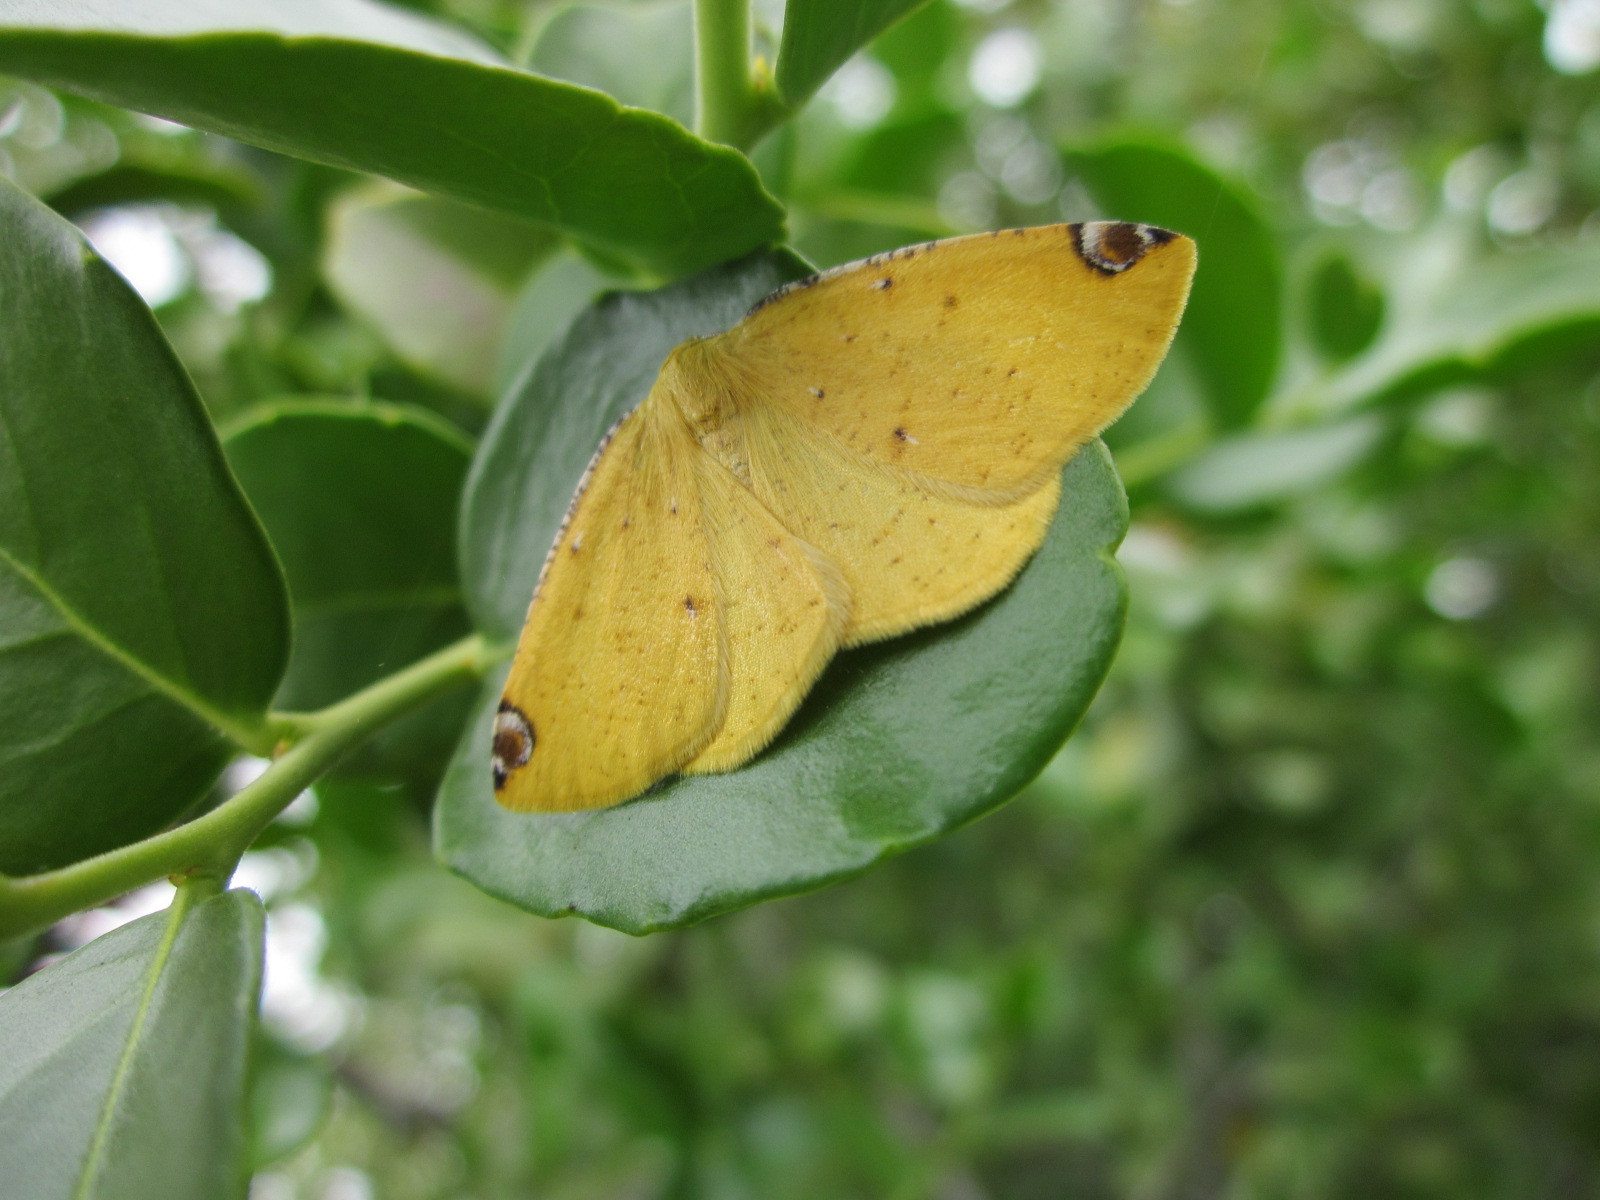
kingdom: Animalia
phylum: Arthropoda
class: Insecta
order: Lepidoptera
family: Geometridae
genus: Perusia
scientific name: Perusia aurantiacaria
